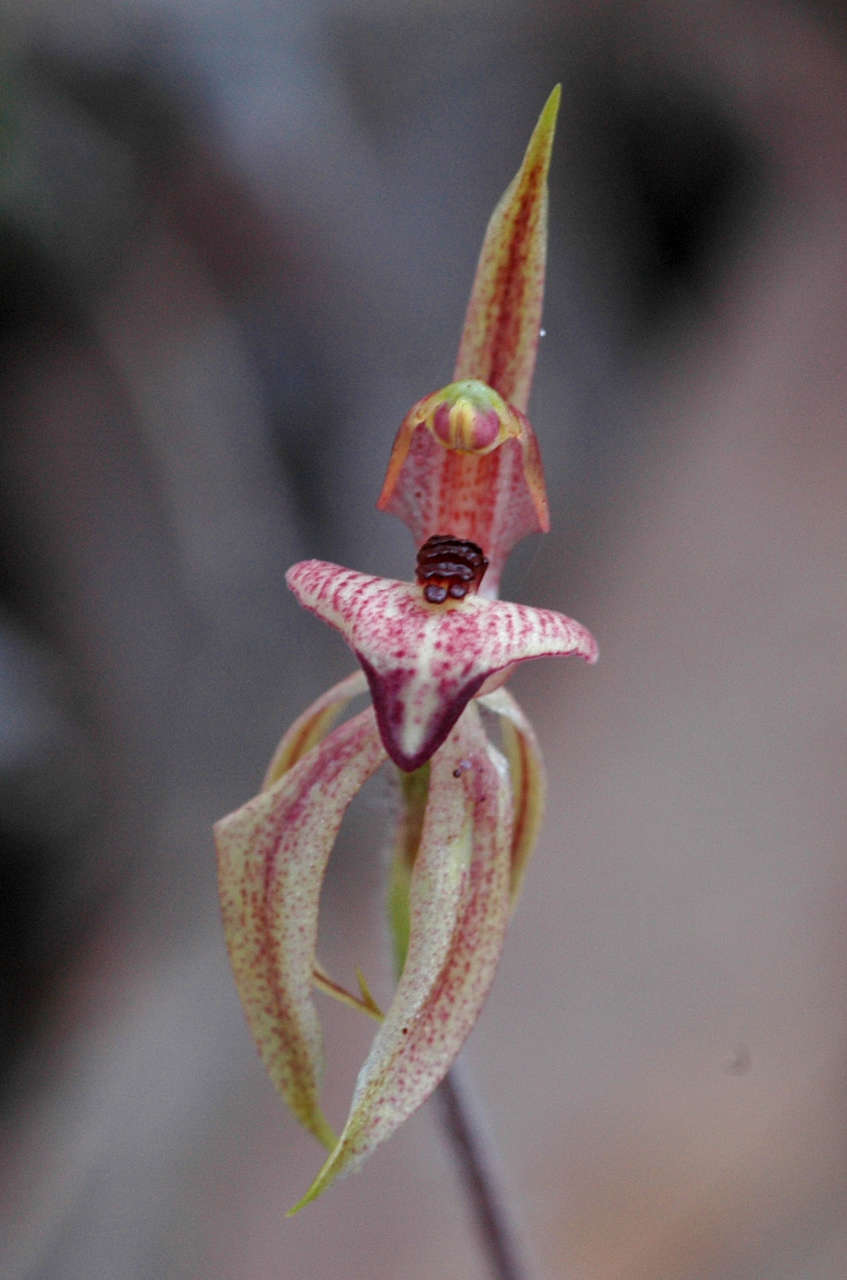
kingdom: Plantae
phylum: Tracheophyta
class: Liliopsida
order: Asparagales
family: Orchidaceae
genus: Caladenia
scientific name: Caladenia cardiochila
